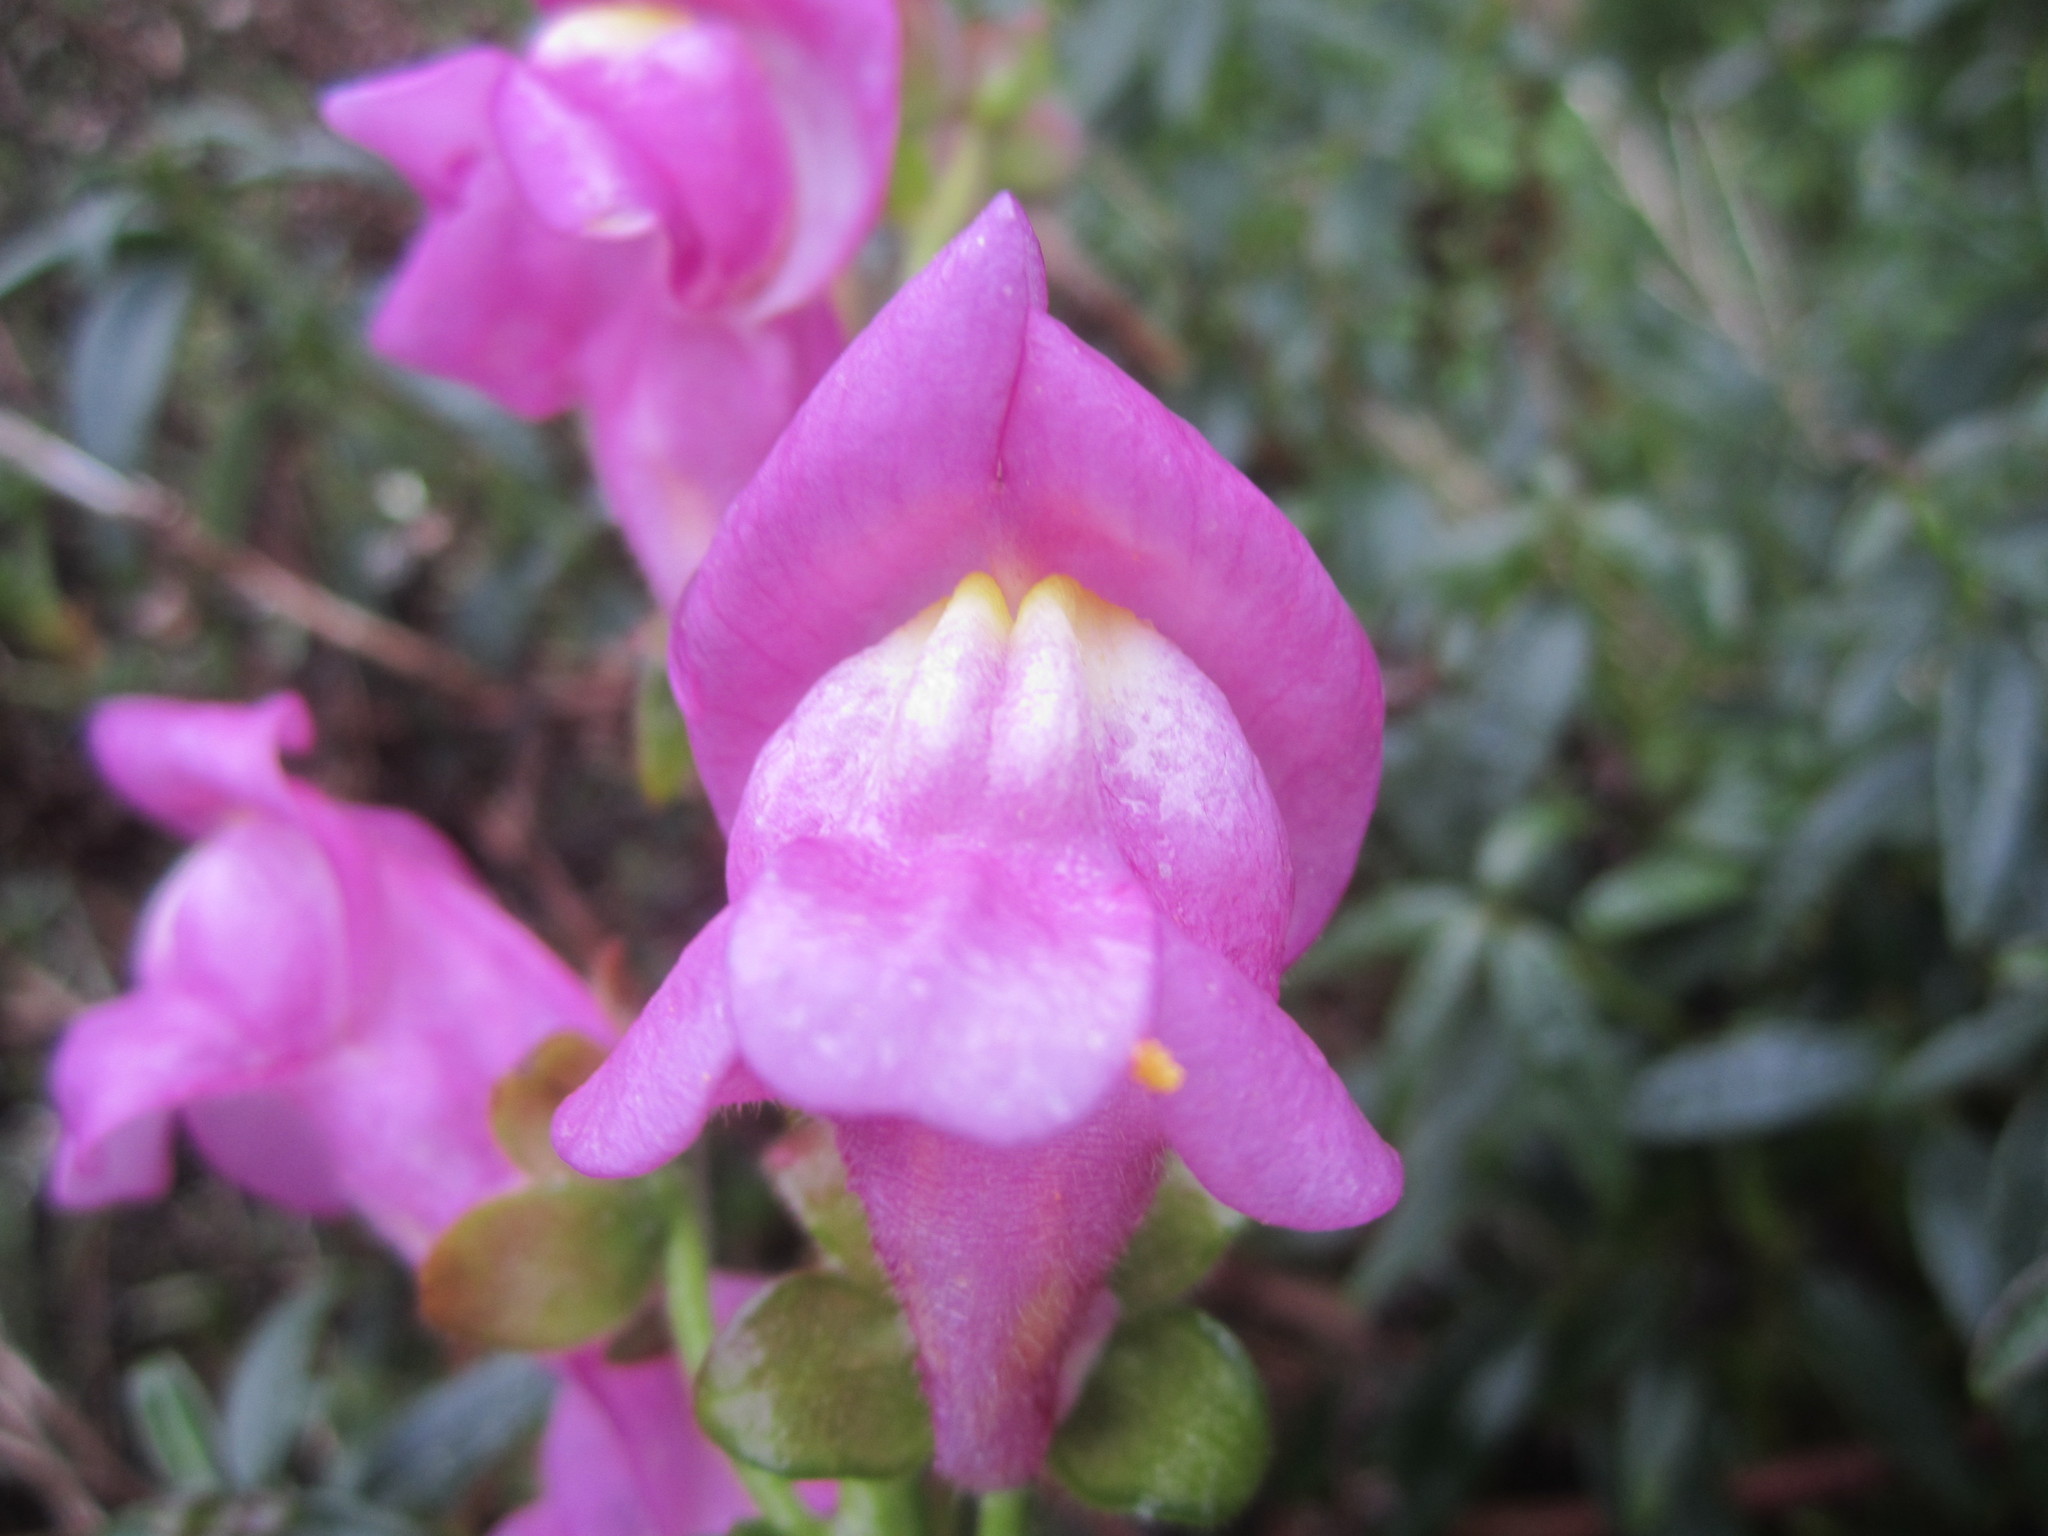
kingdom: Plantae
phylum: Tracheophyta
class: Magnoliopsida
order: Lamiales
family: Plantaginaceae
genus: Antirrhinum
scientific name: Antirrhinum cirrhigerum
